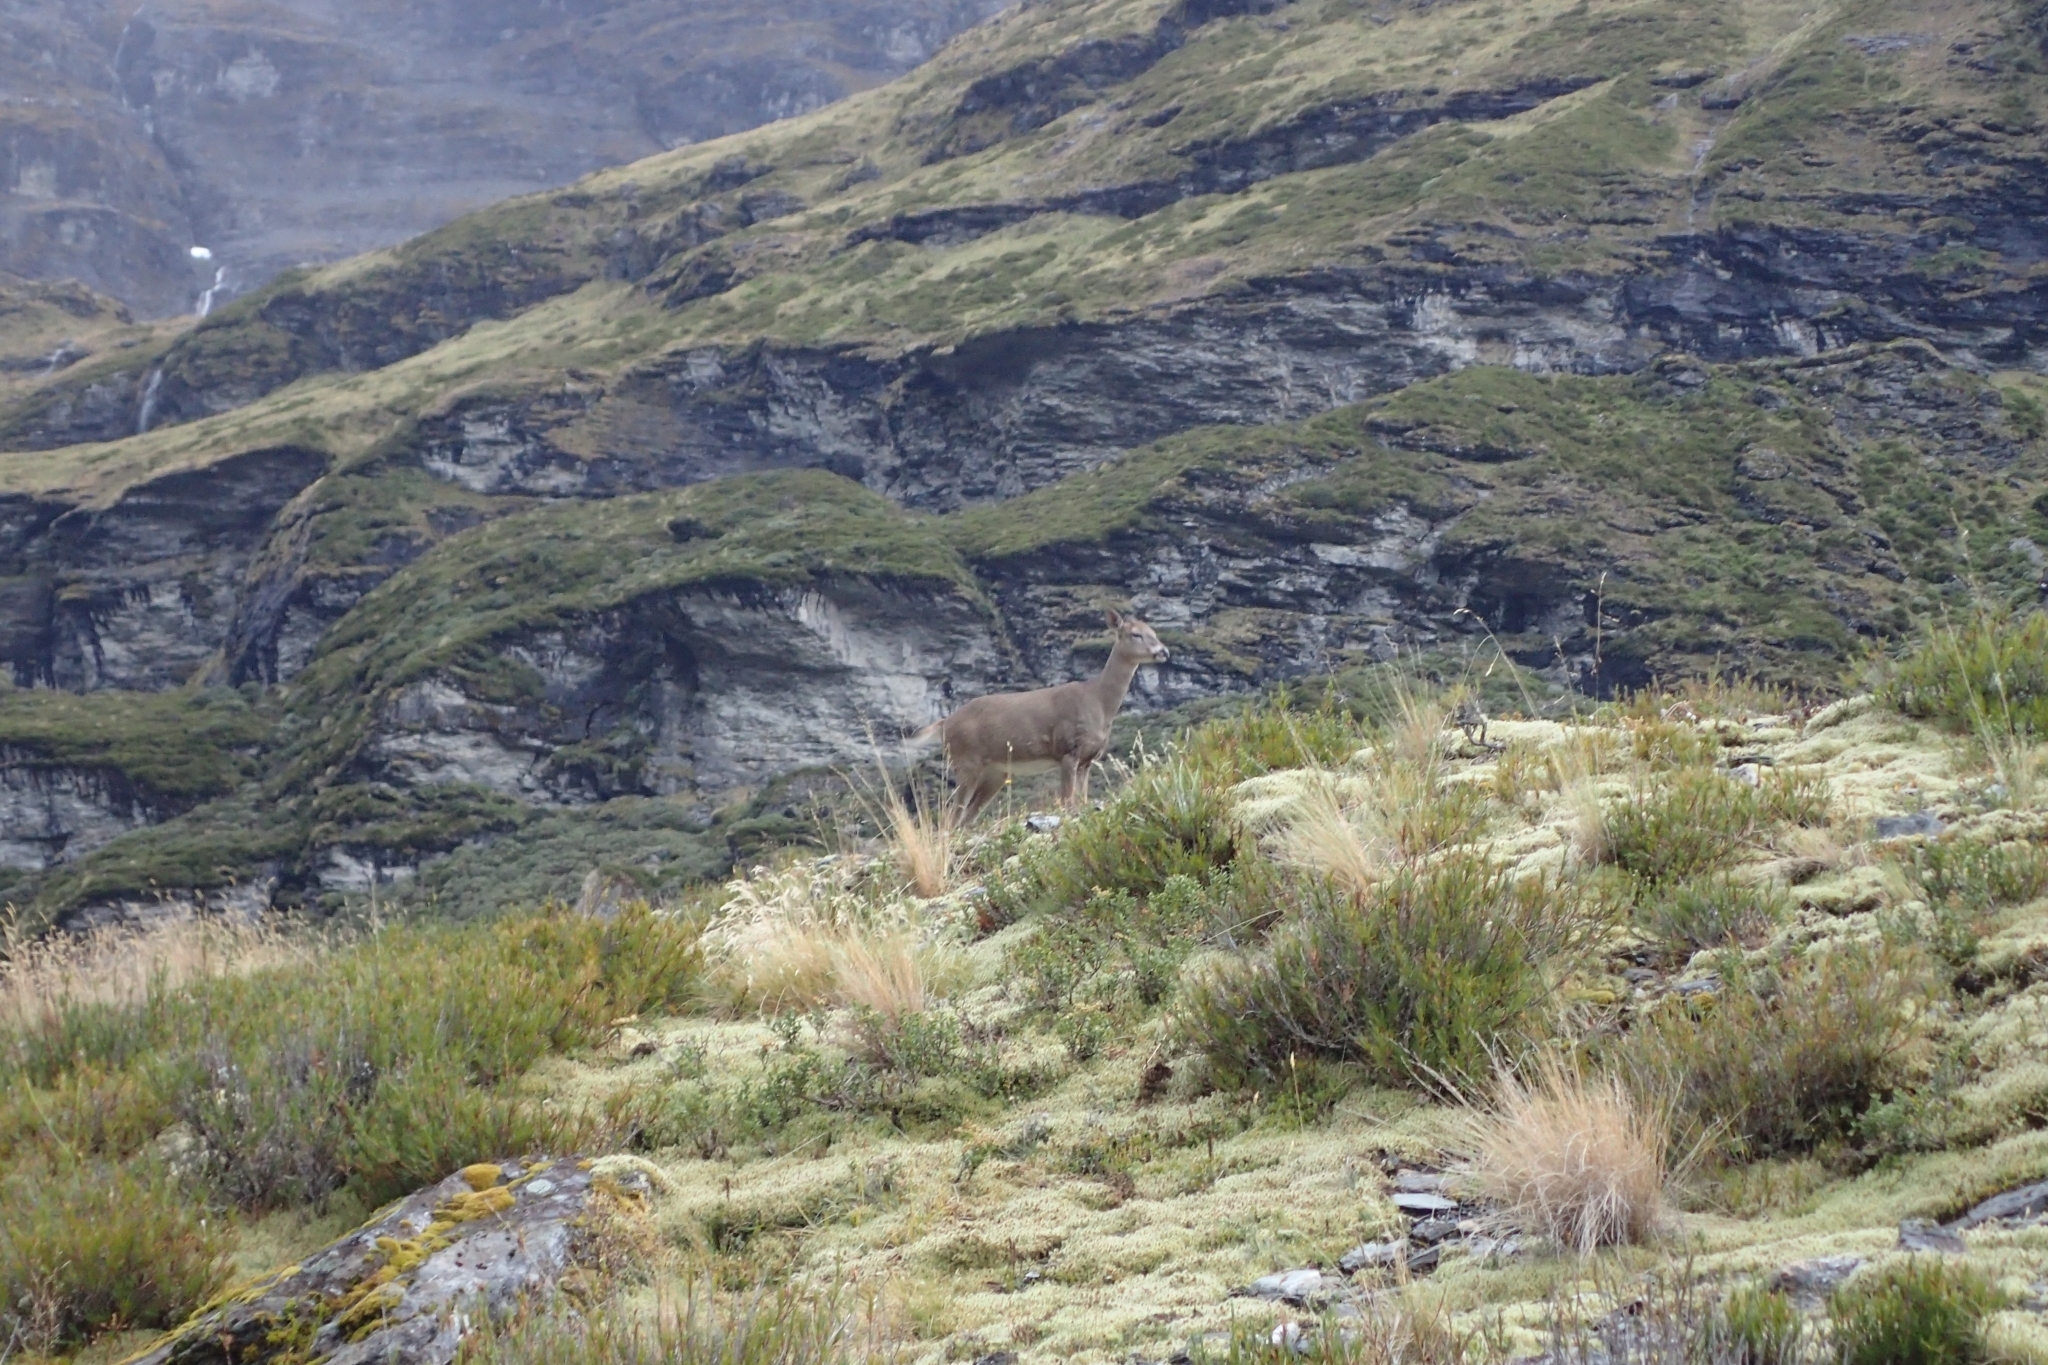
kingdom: Animalia
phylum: Chordata
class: Mammalia
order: Artiodactyla
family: Cervidae
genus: Dama
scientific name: Dama dama
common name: Fallow deer
